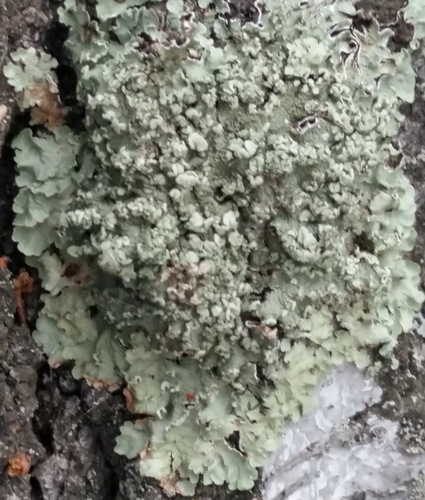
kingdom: Fungi
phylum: Ascomycota
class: Lecanoromycetes
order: Lecanorales
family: Parmeliaceae
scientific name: Parmeliaceae
